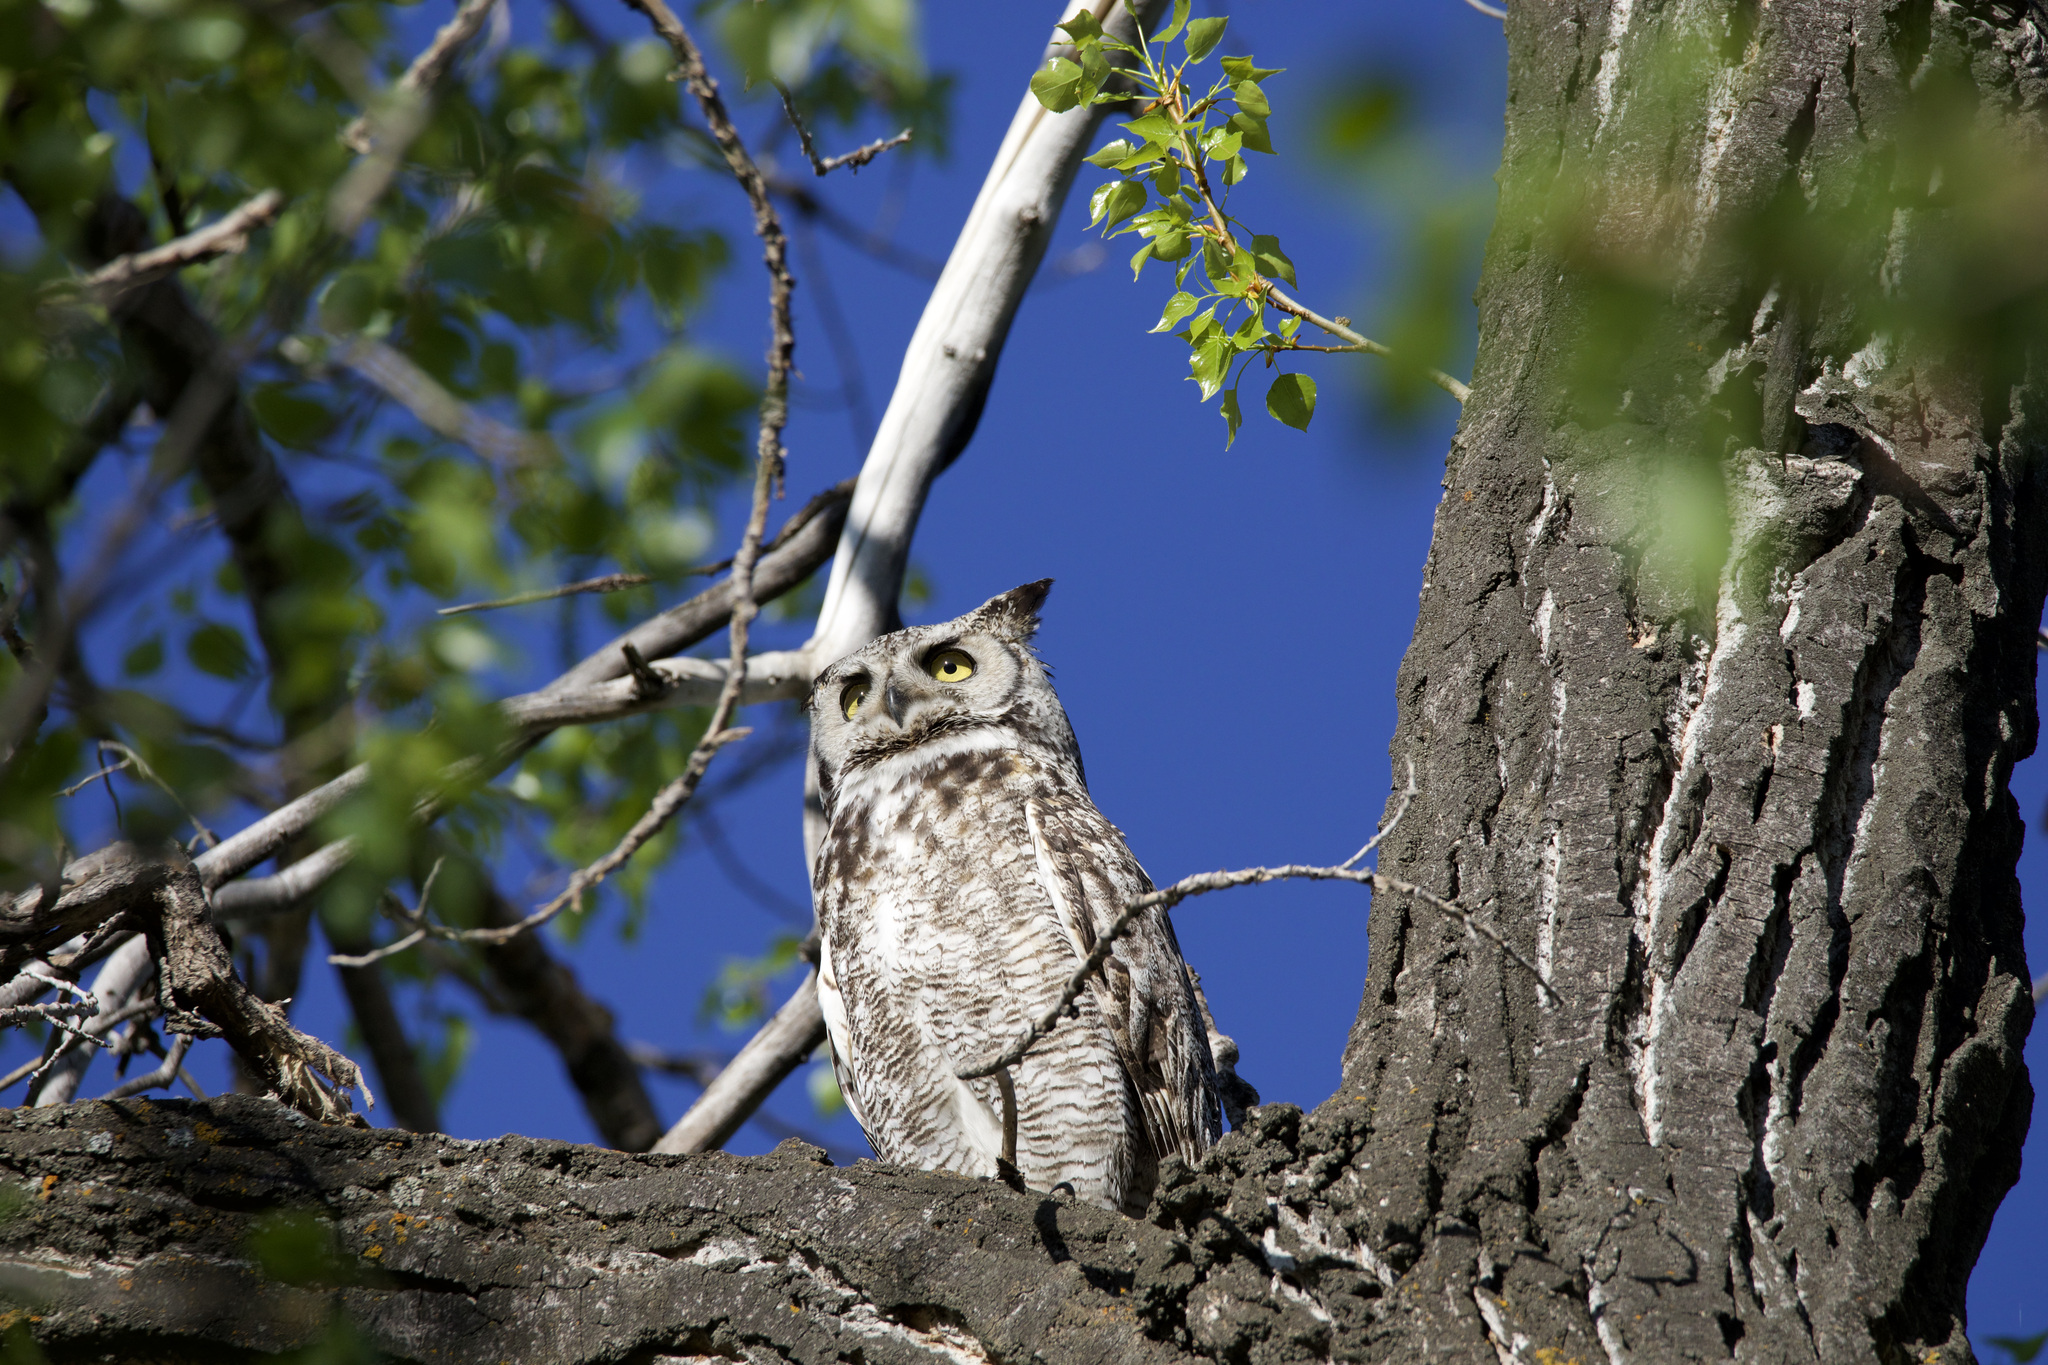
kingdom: Animalia
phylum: Chordata
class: Aves
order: Strigiformes
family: Strigidae
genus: Bubo
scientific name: Bubo virginianus
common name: Great horned owl
